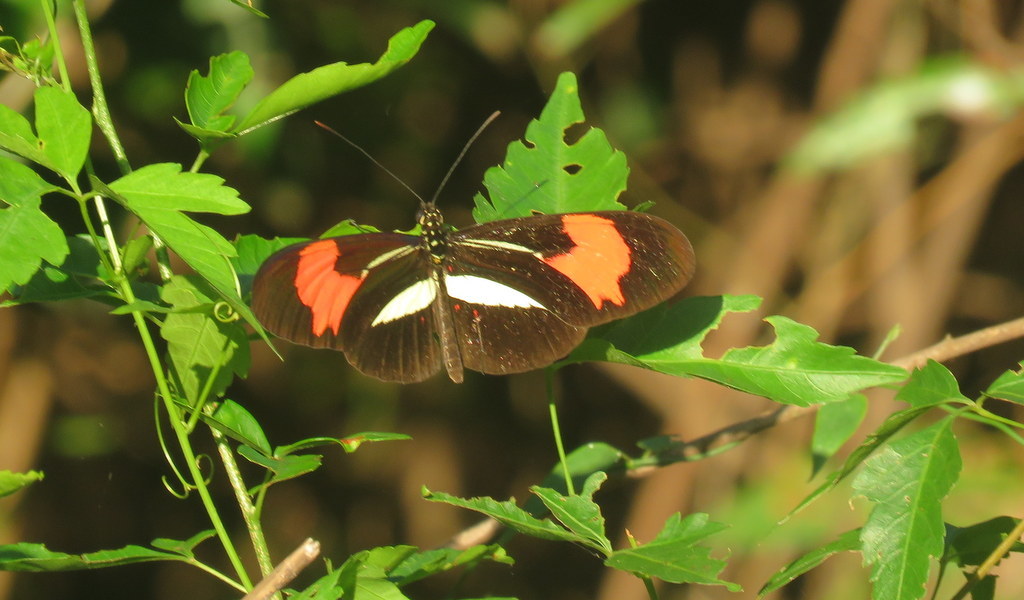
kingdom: Animalia
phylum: Arthropoda
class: Insecta
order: Lepidoptera
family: Nymphalidae
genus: Heliconius
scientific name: Heliconius erato
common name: Common patch longwing
